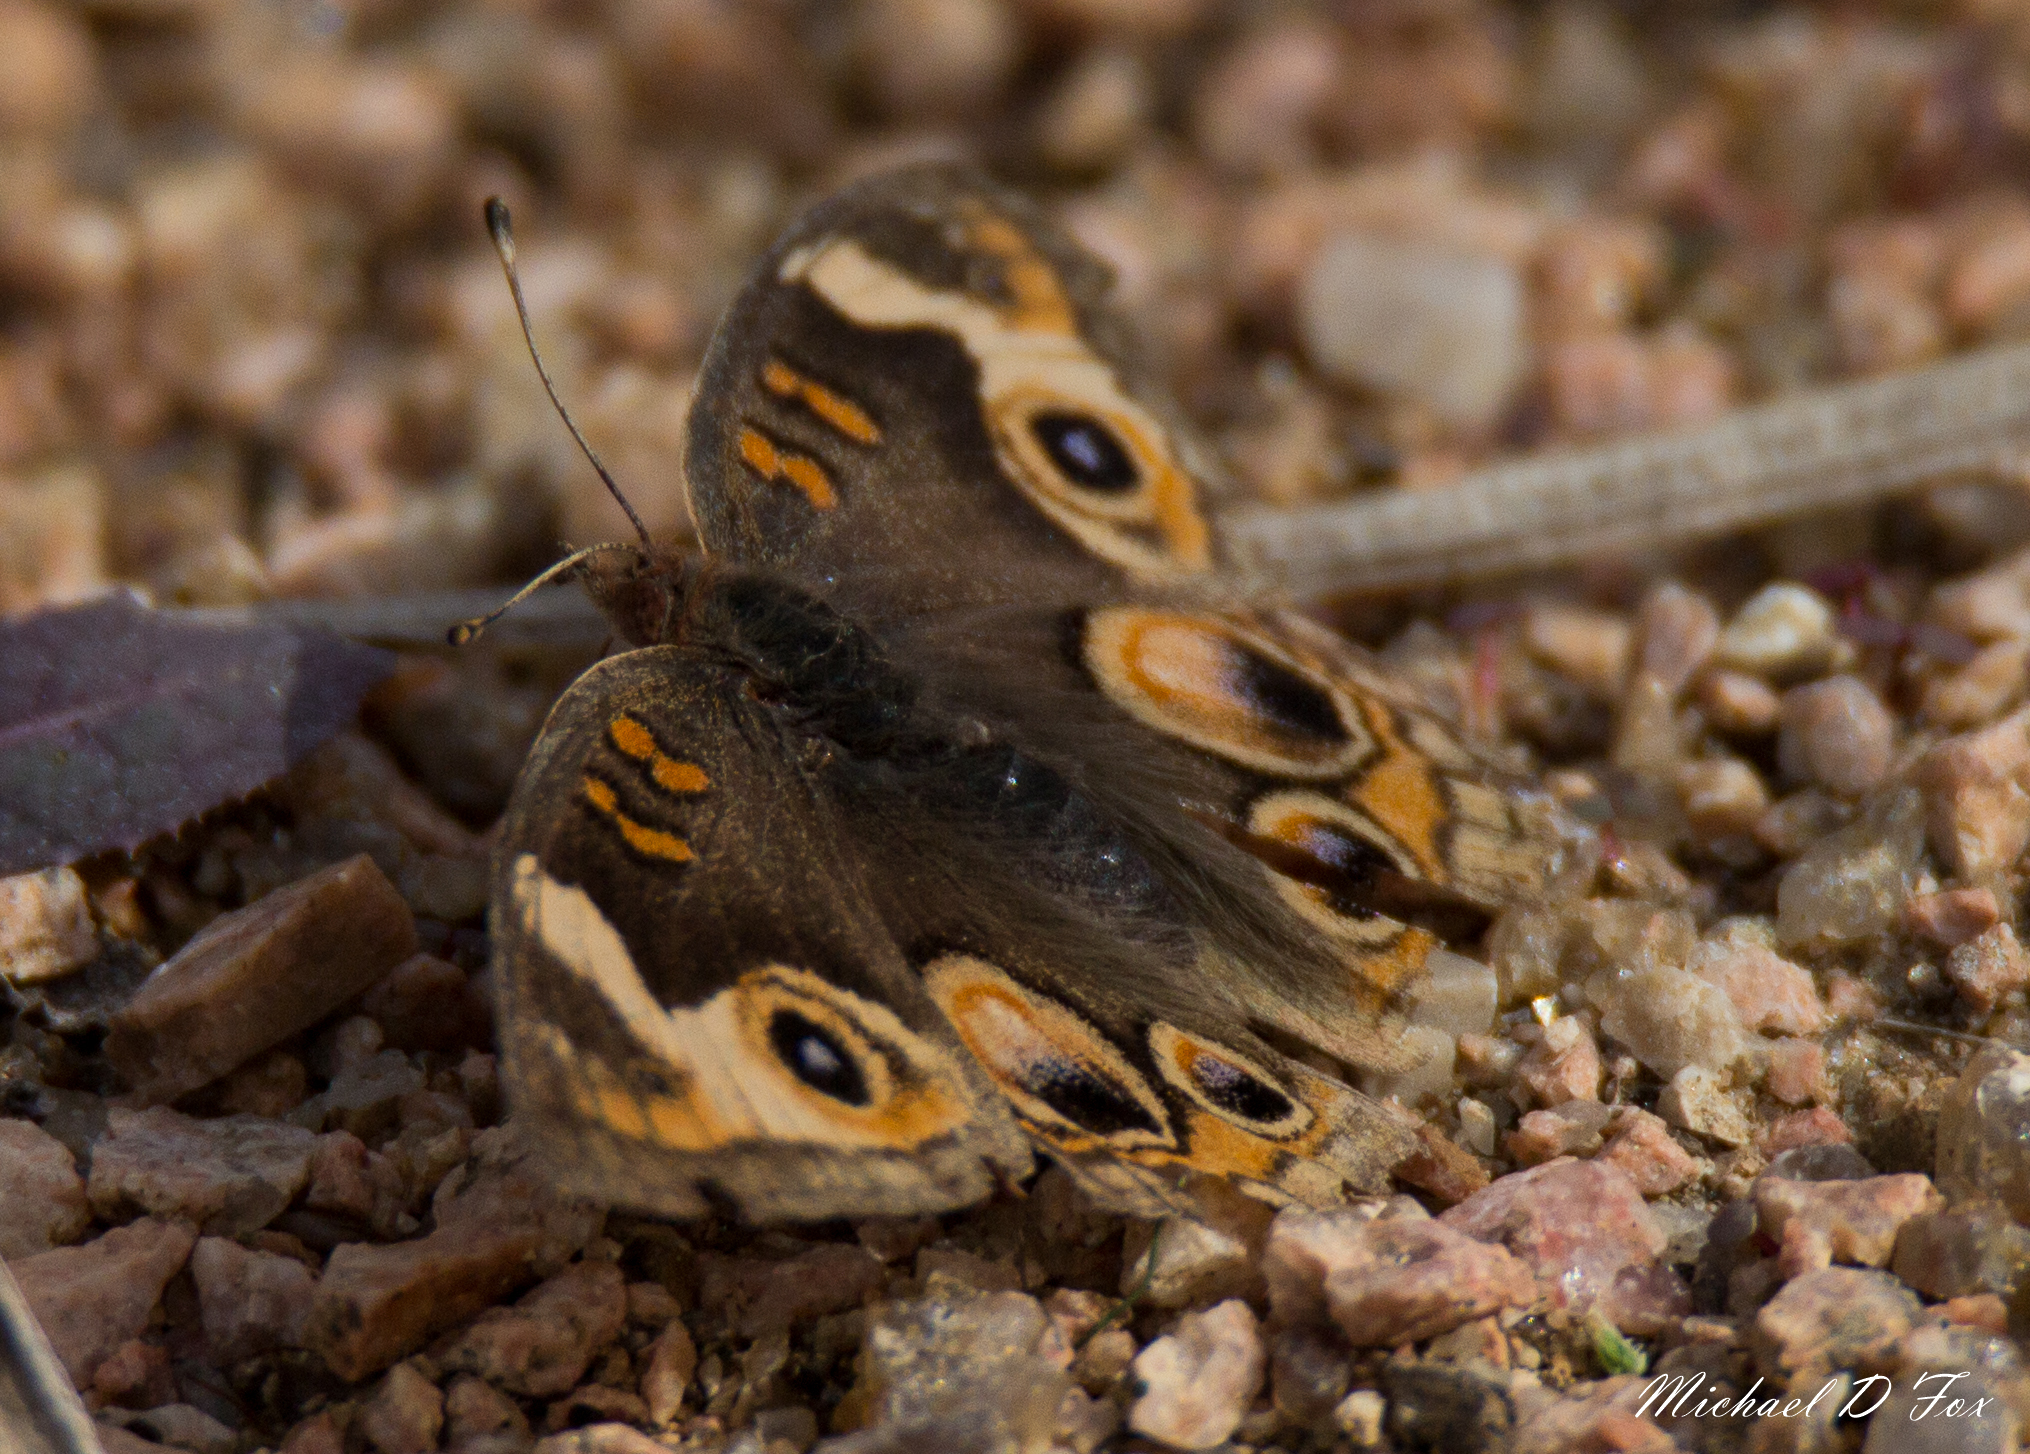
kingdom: Animalia
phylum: Arthropoda
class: Insecta
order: Lepidoptera
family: Nymphalidae
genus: Junonia
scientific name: Junonia coenia
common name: Common buckeye
